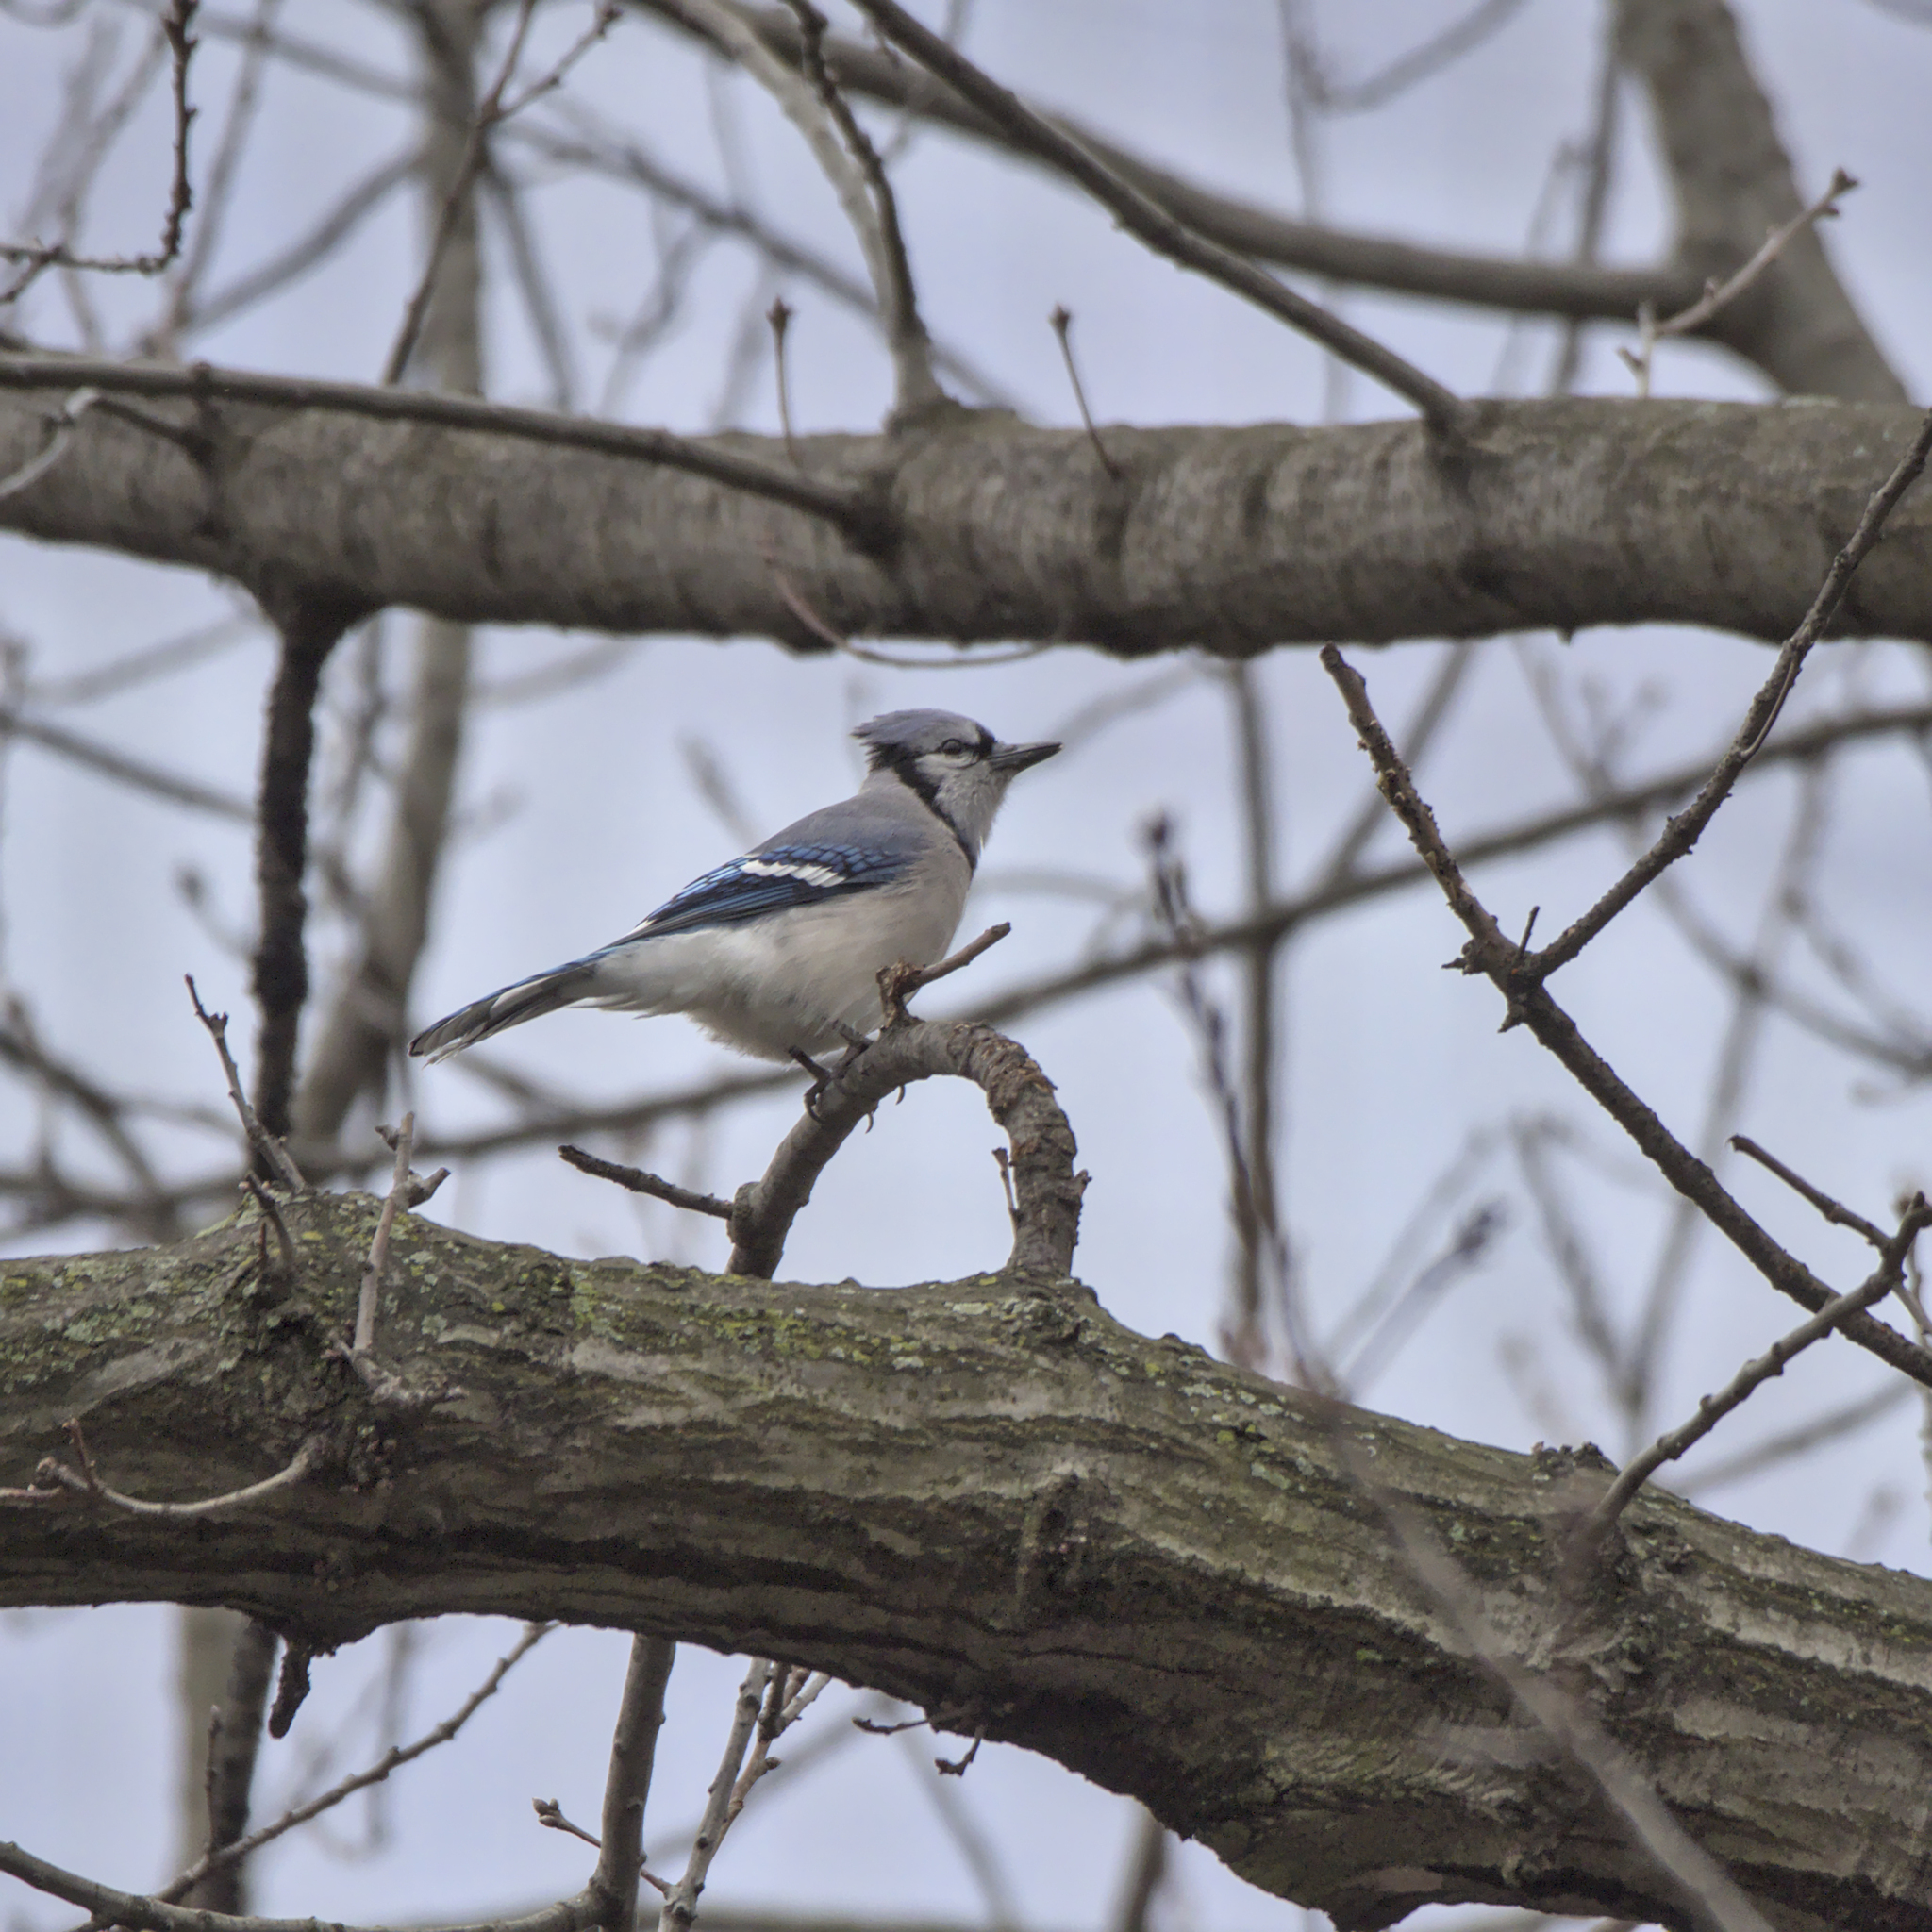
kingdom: Animalia
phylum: Chordata
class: Aves
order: Passeriformes
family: Corvidae
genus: Cyanocitta
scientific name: Cyanocitta cristata
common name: Blue jay
